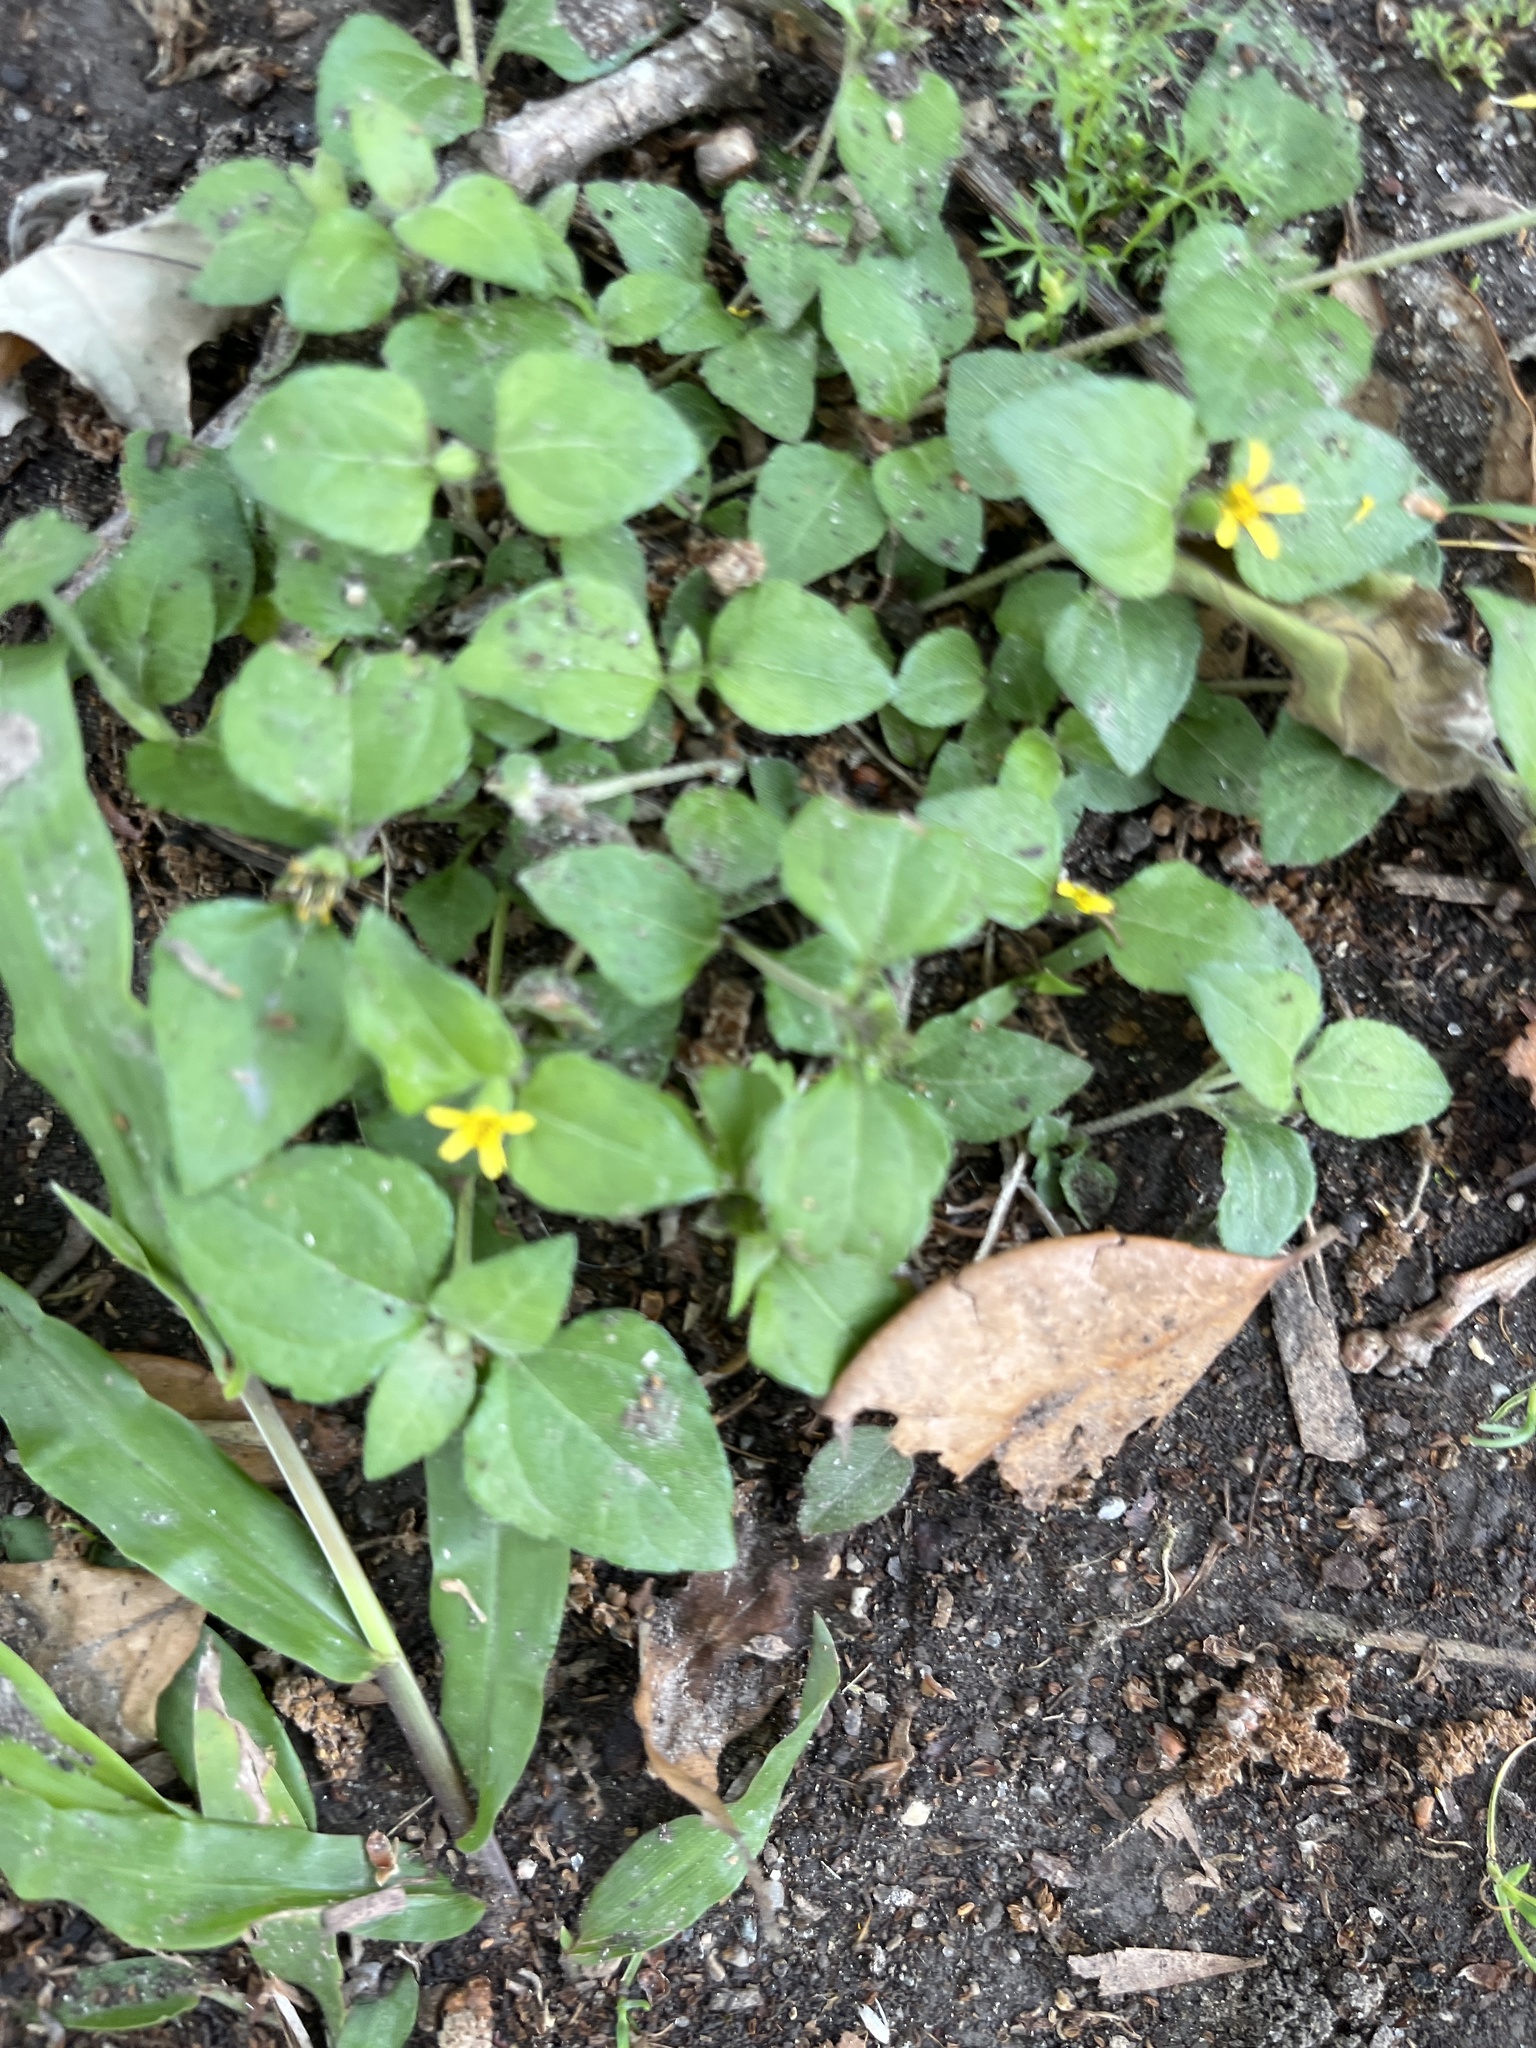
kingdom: Plantae
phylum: Tracheophyta
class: Magnoliopsida
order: Asterales
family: Asteraceae
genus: Calyptocarpus
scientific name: Calyptocarpus vialis
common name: Straggler daisy
